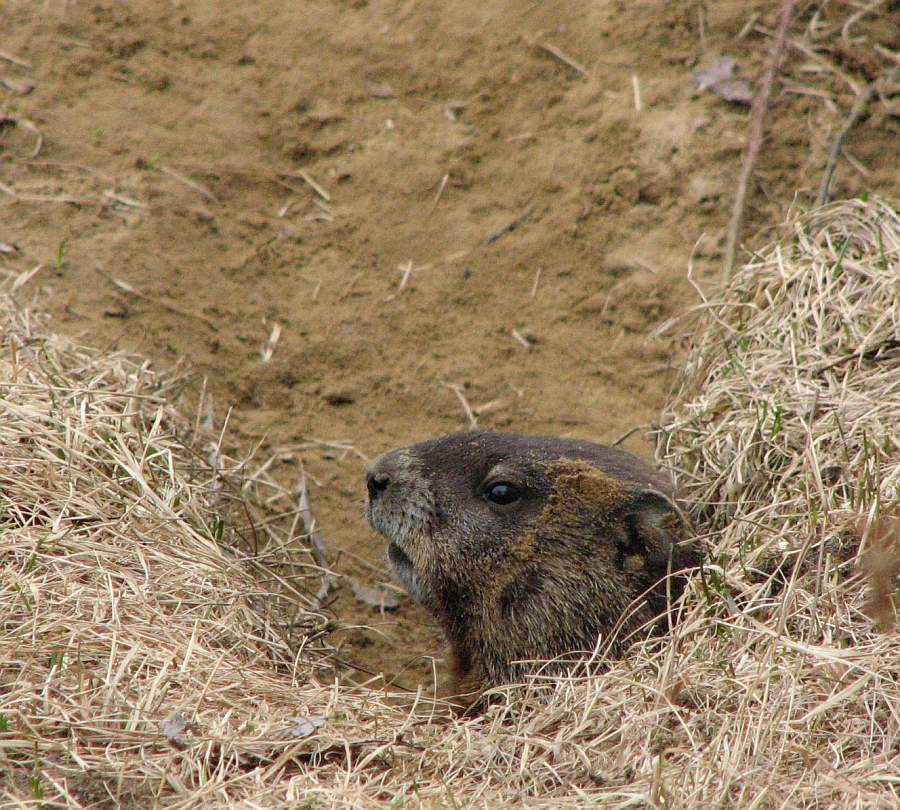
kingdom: Animalia
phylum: Chordata
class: Mammalia
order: Rodentia
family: Sciuridae
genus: Marmota
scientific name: Marmota monax
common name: Groundhog
